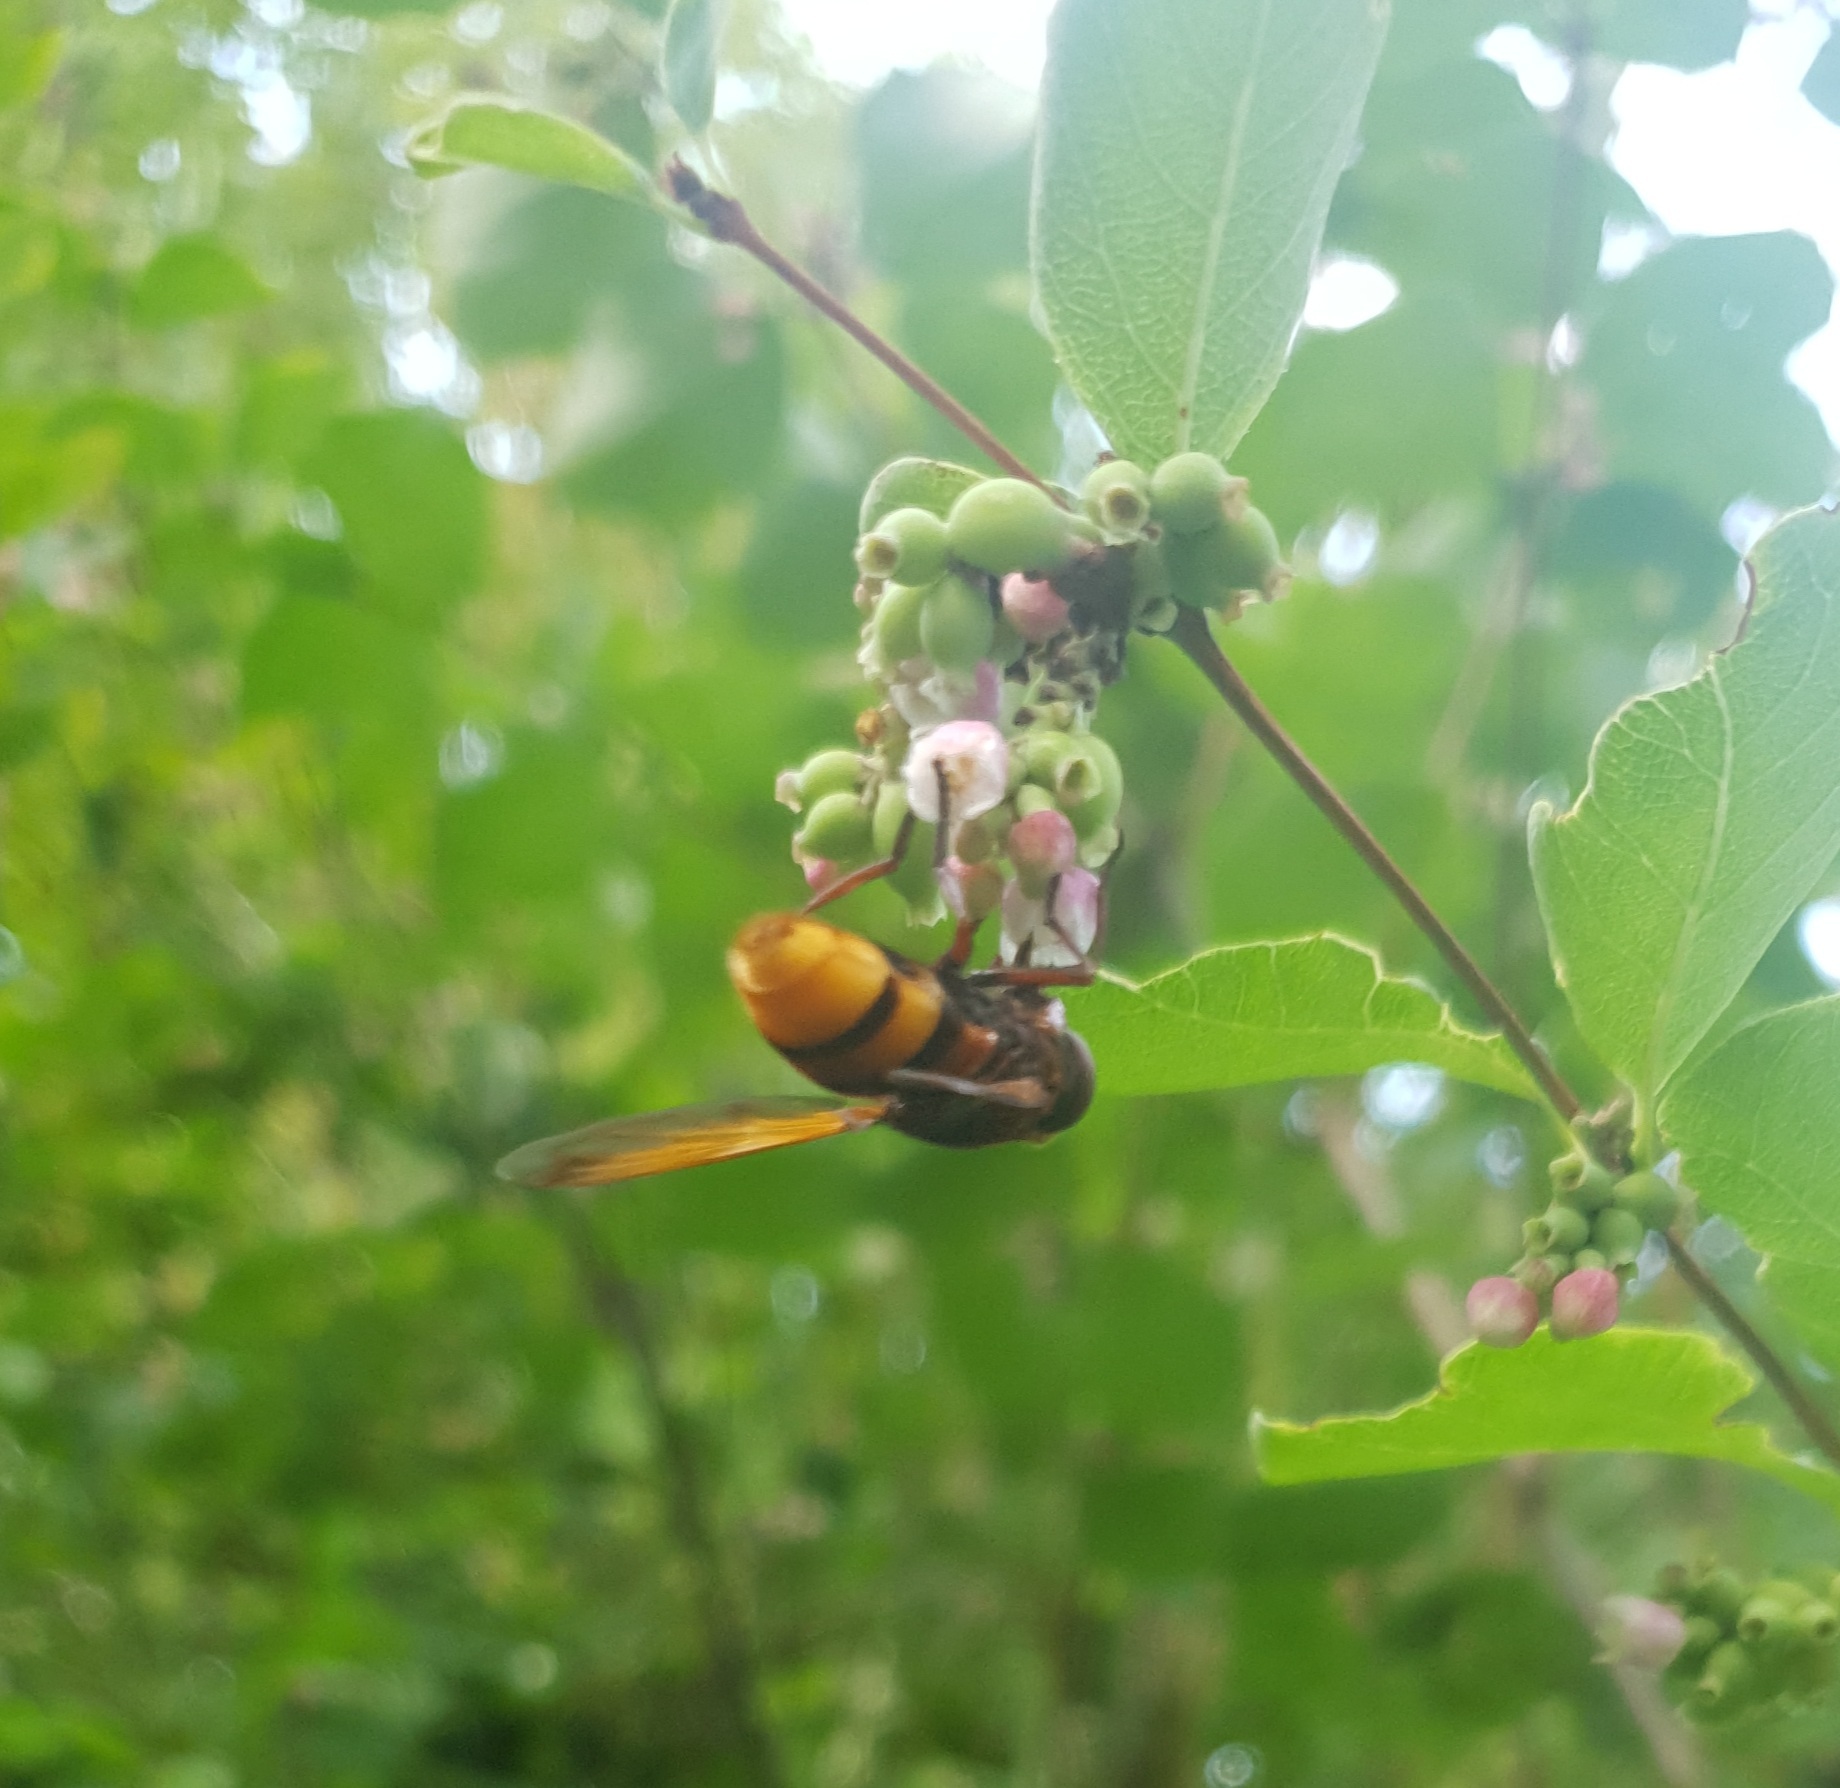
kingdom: Animalia
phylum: Arthropoda
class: Insecta
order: Diptera
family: Syrphidae
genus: Volucella
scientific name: Volucella zonaria
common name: Hornet hoverfly
